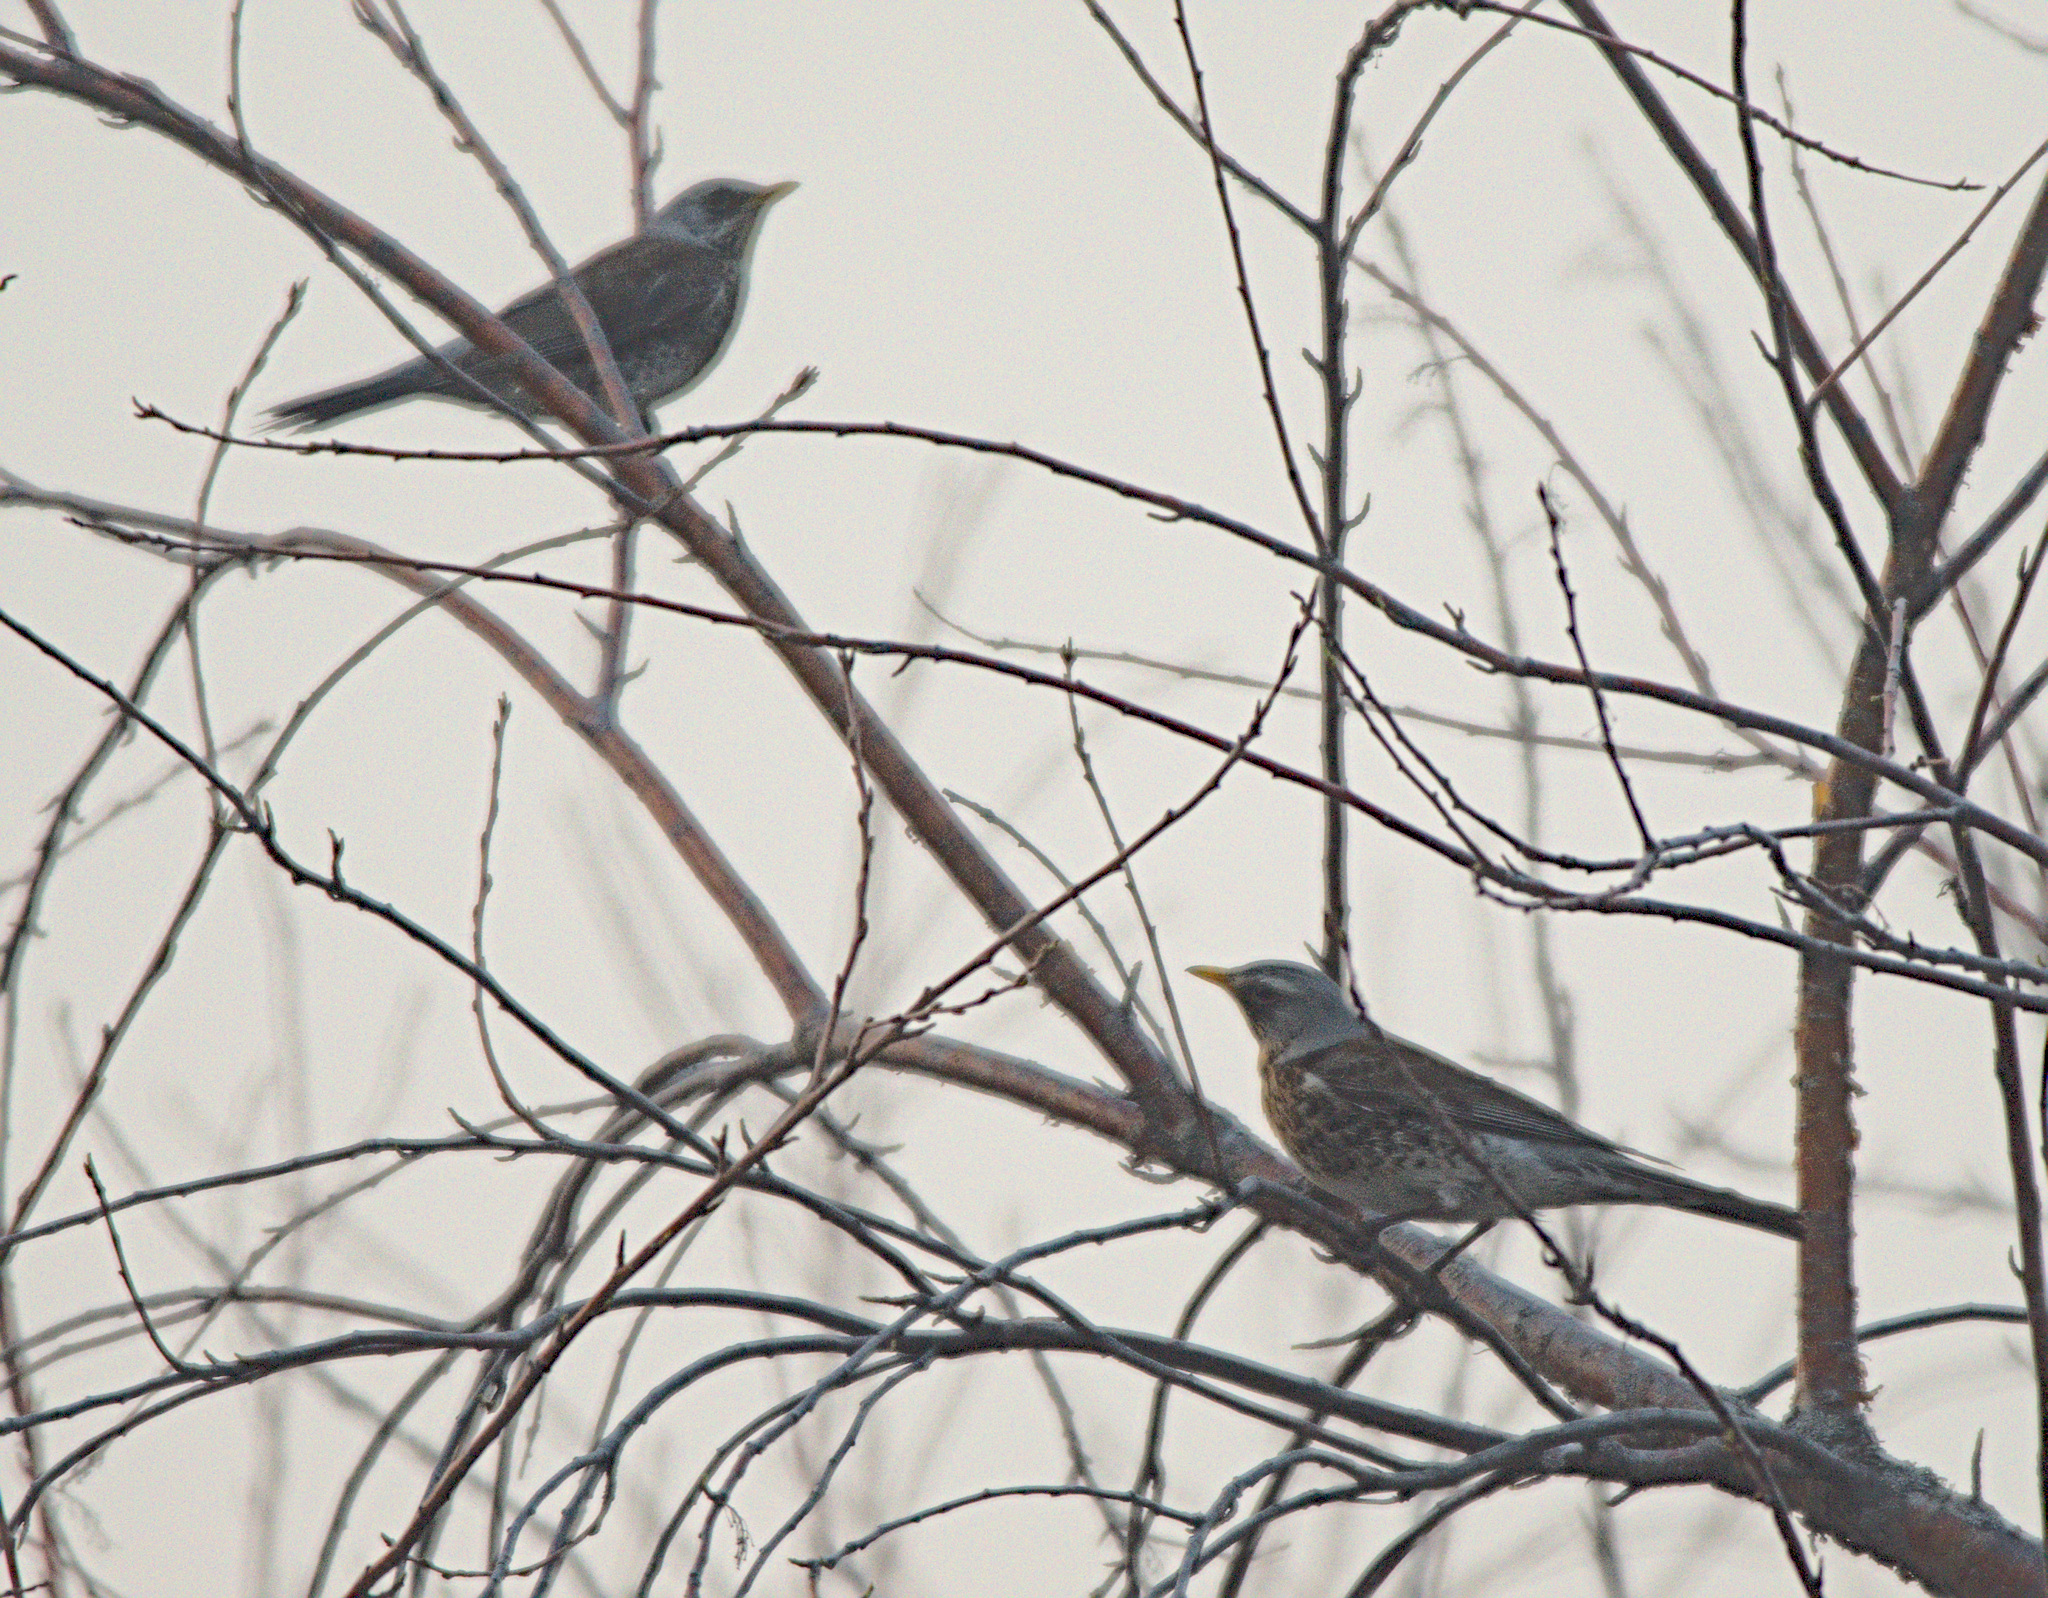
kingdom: Animalia
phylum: Chordata
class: Aves
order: Passeriformes
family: Turdidae
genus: Turdus
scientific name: Turdus pilaris
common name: Fieldfare
